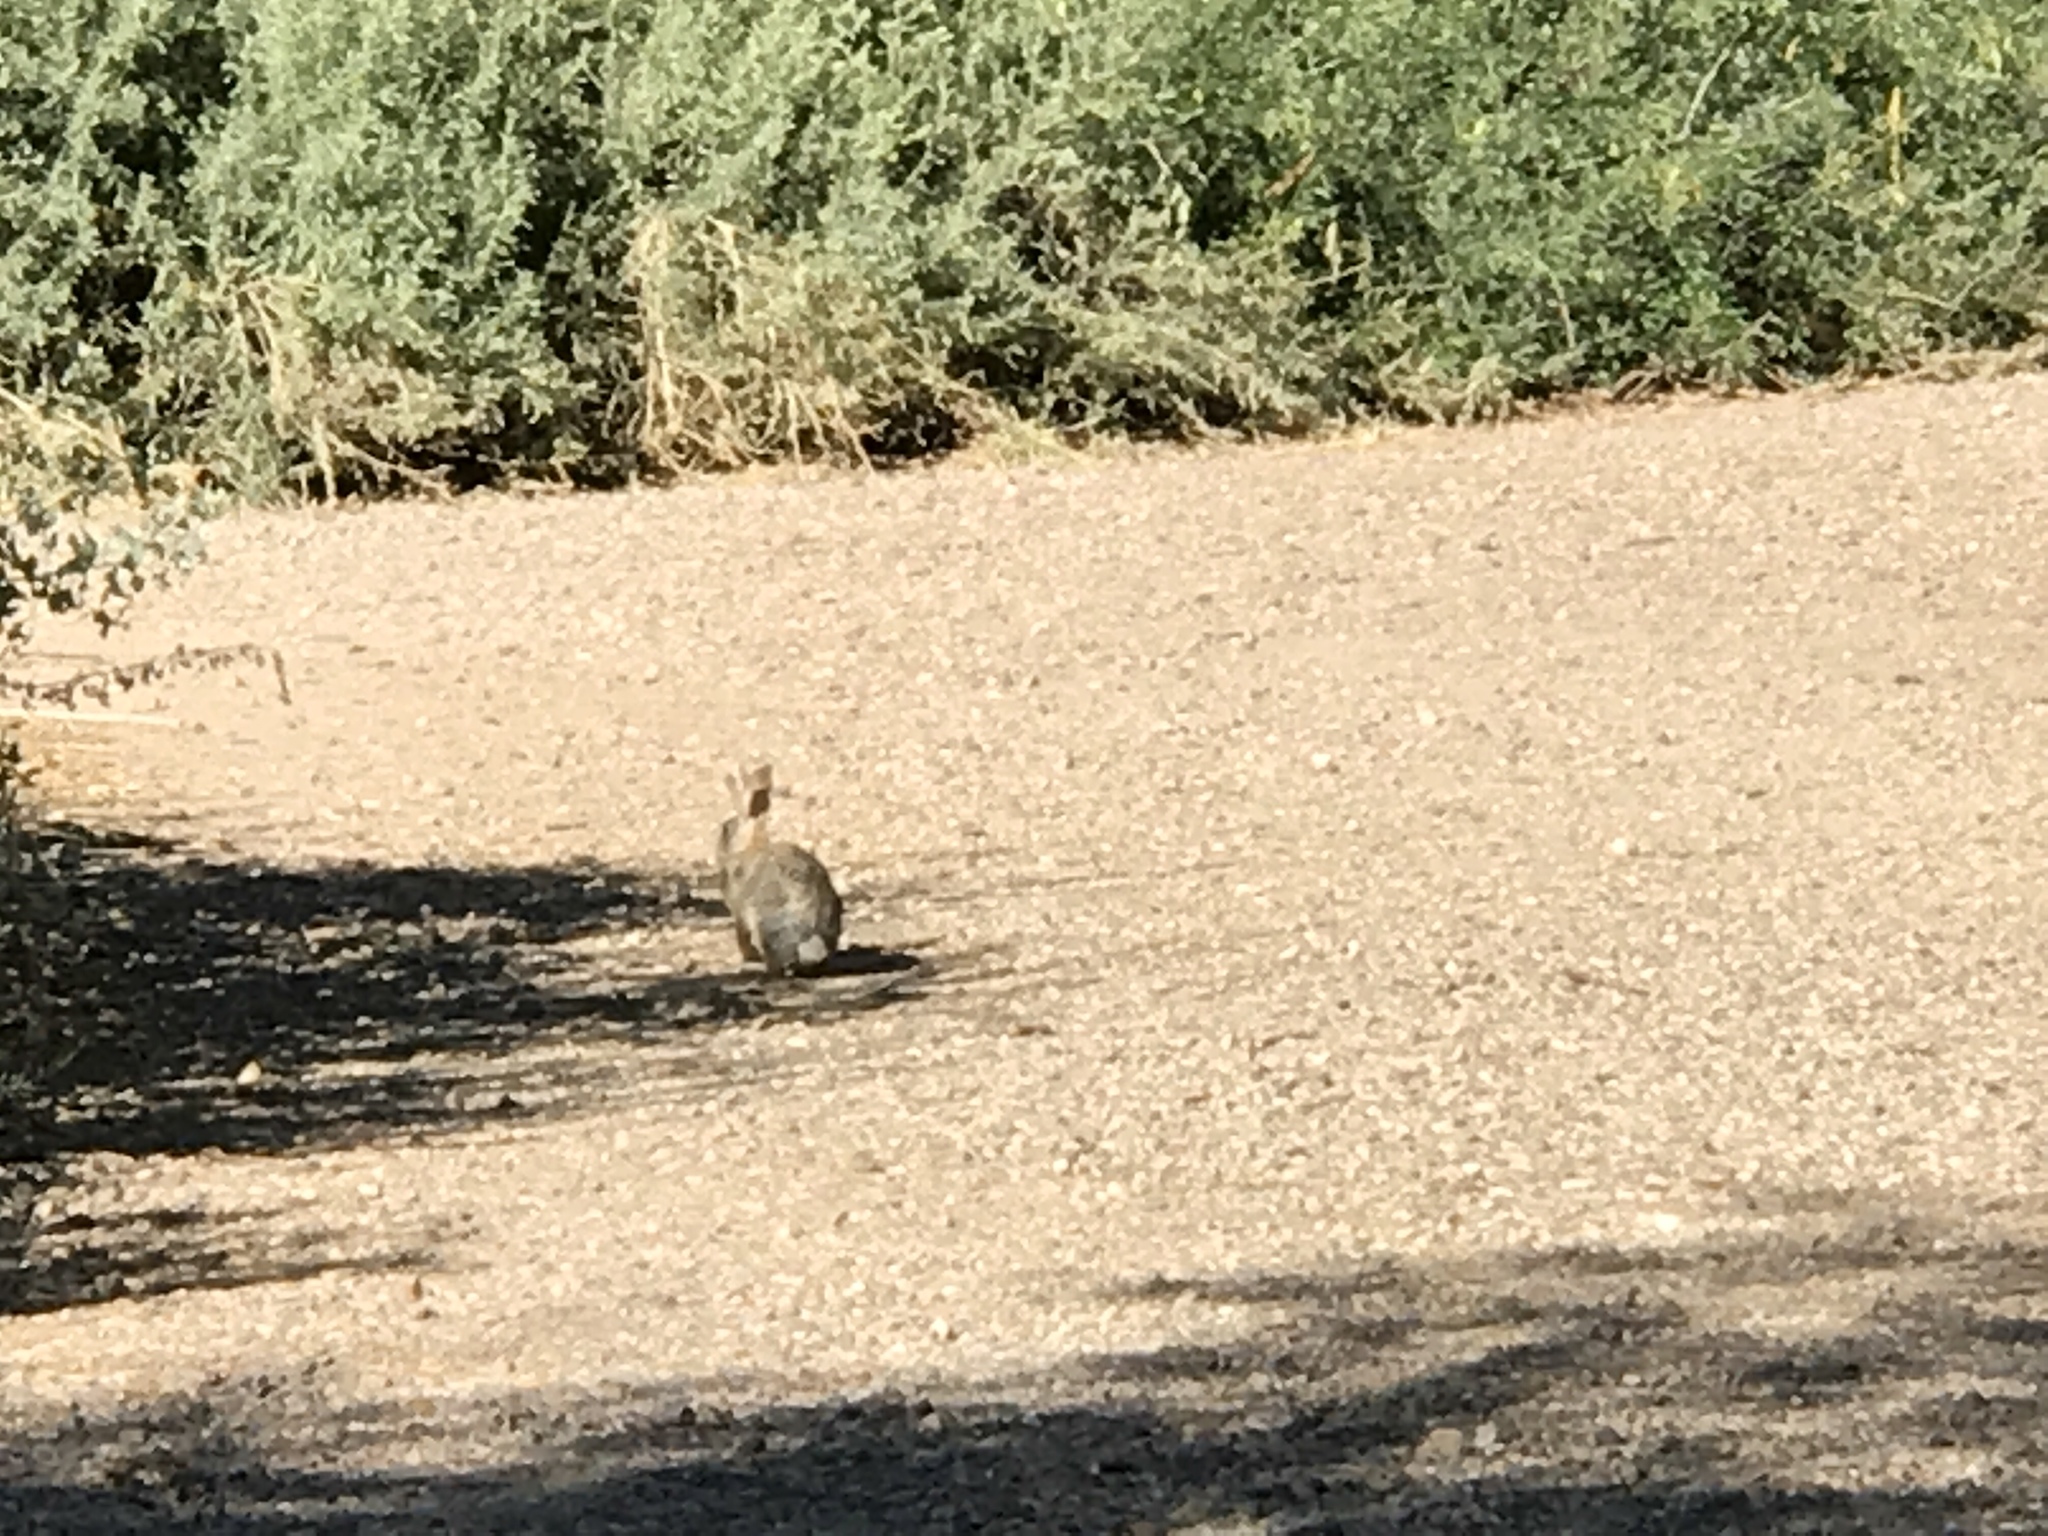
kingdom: Animalia
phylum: Chordata
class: Mammalia
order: Lagomorpha
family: Leporidae
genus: Sylvilagus
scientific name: Sylvilagus audubonii
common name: Desert cottontail
